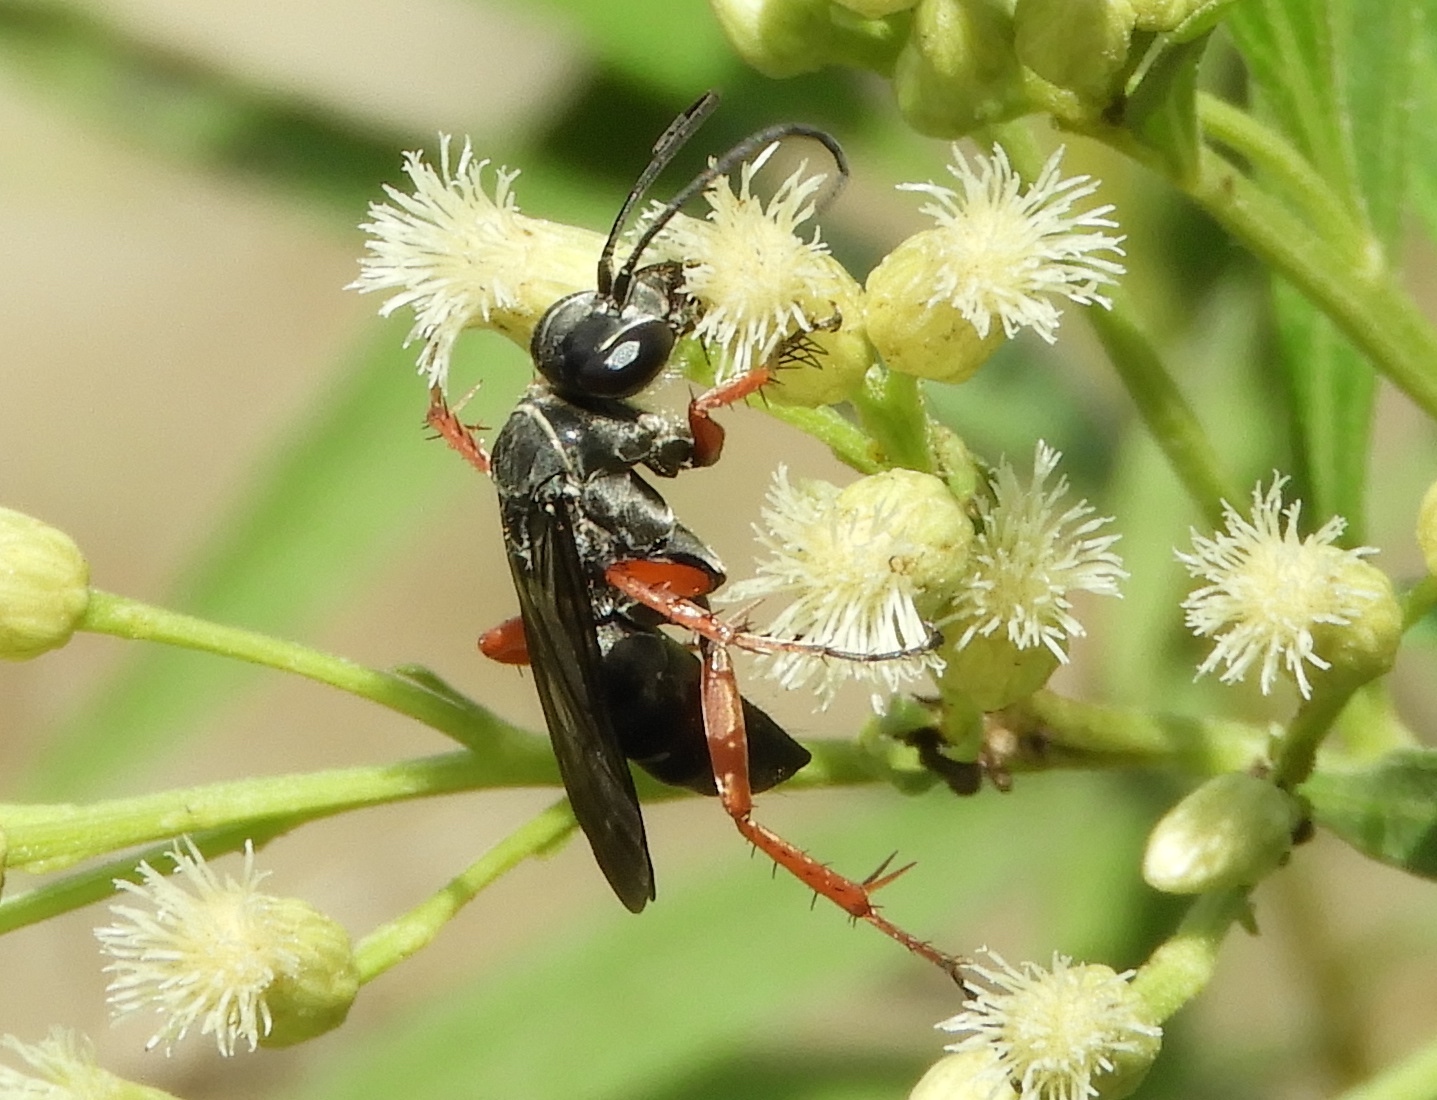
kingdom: Animalia
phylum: Arthropoda
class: Insecta
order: Hymenoptera
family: Pompilidae
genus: Episyron
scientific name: Episyron conterminus
